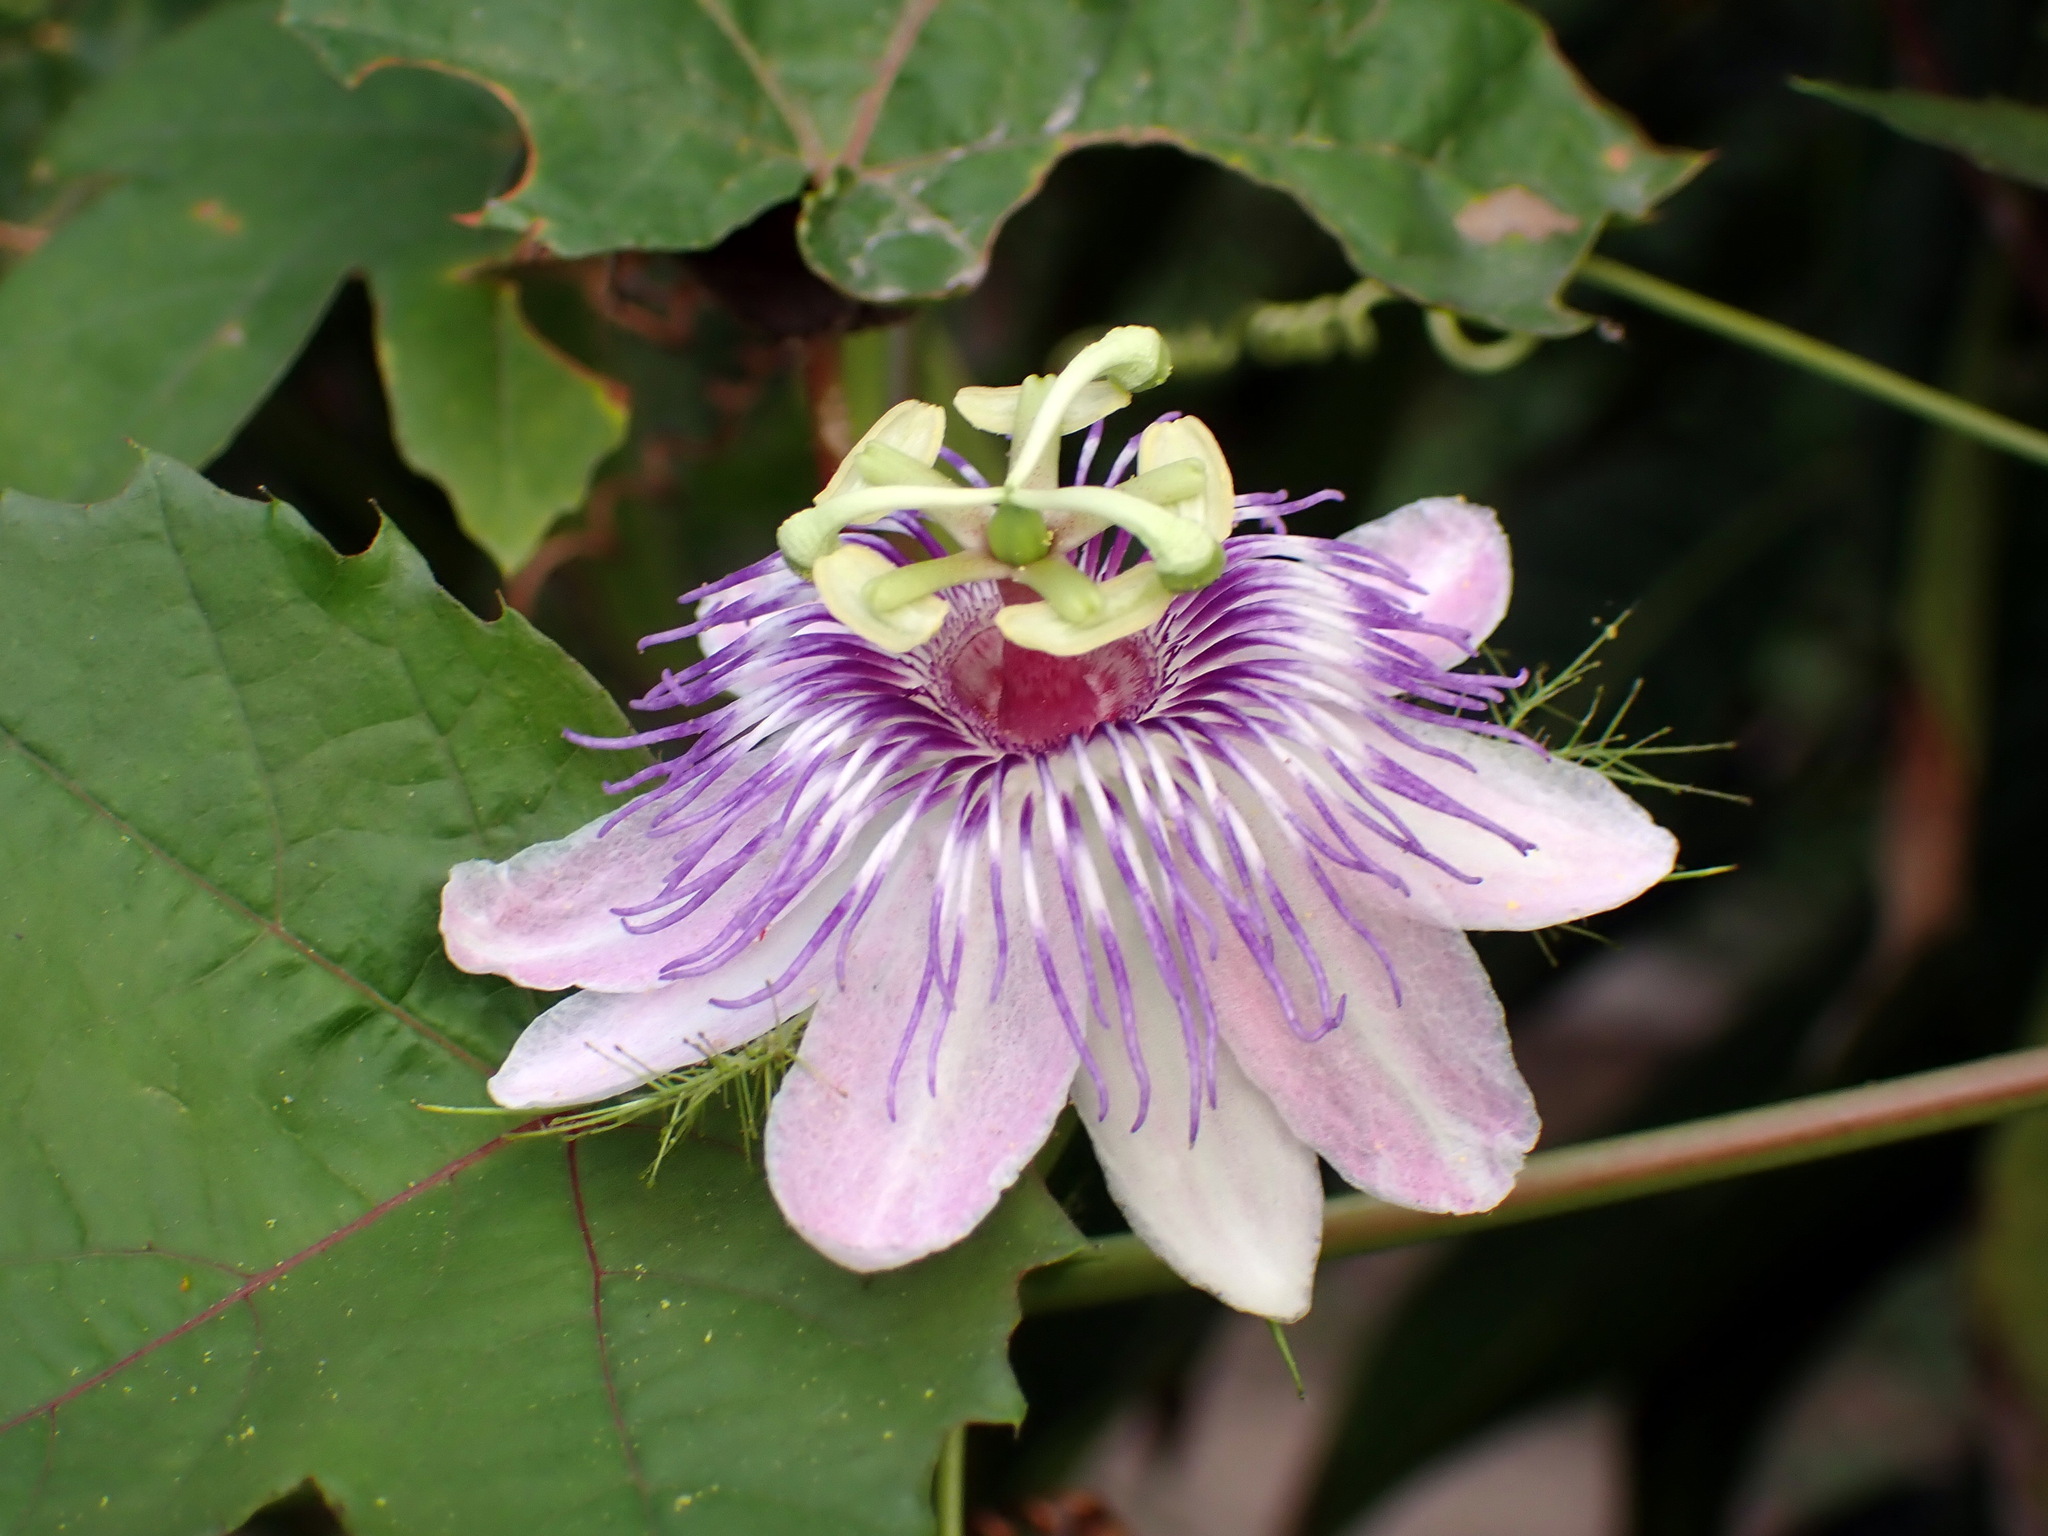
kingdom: Plantae
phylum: Tracheophyta
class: Magnoliopsida
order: Malpighiales
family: Passifloraceae
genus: Passiflora
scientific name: Passiflora
